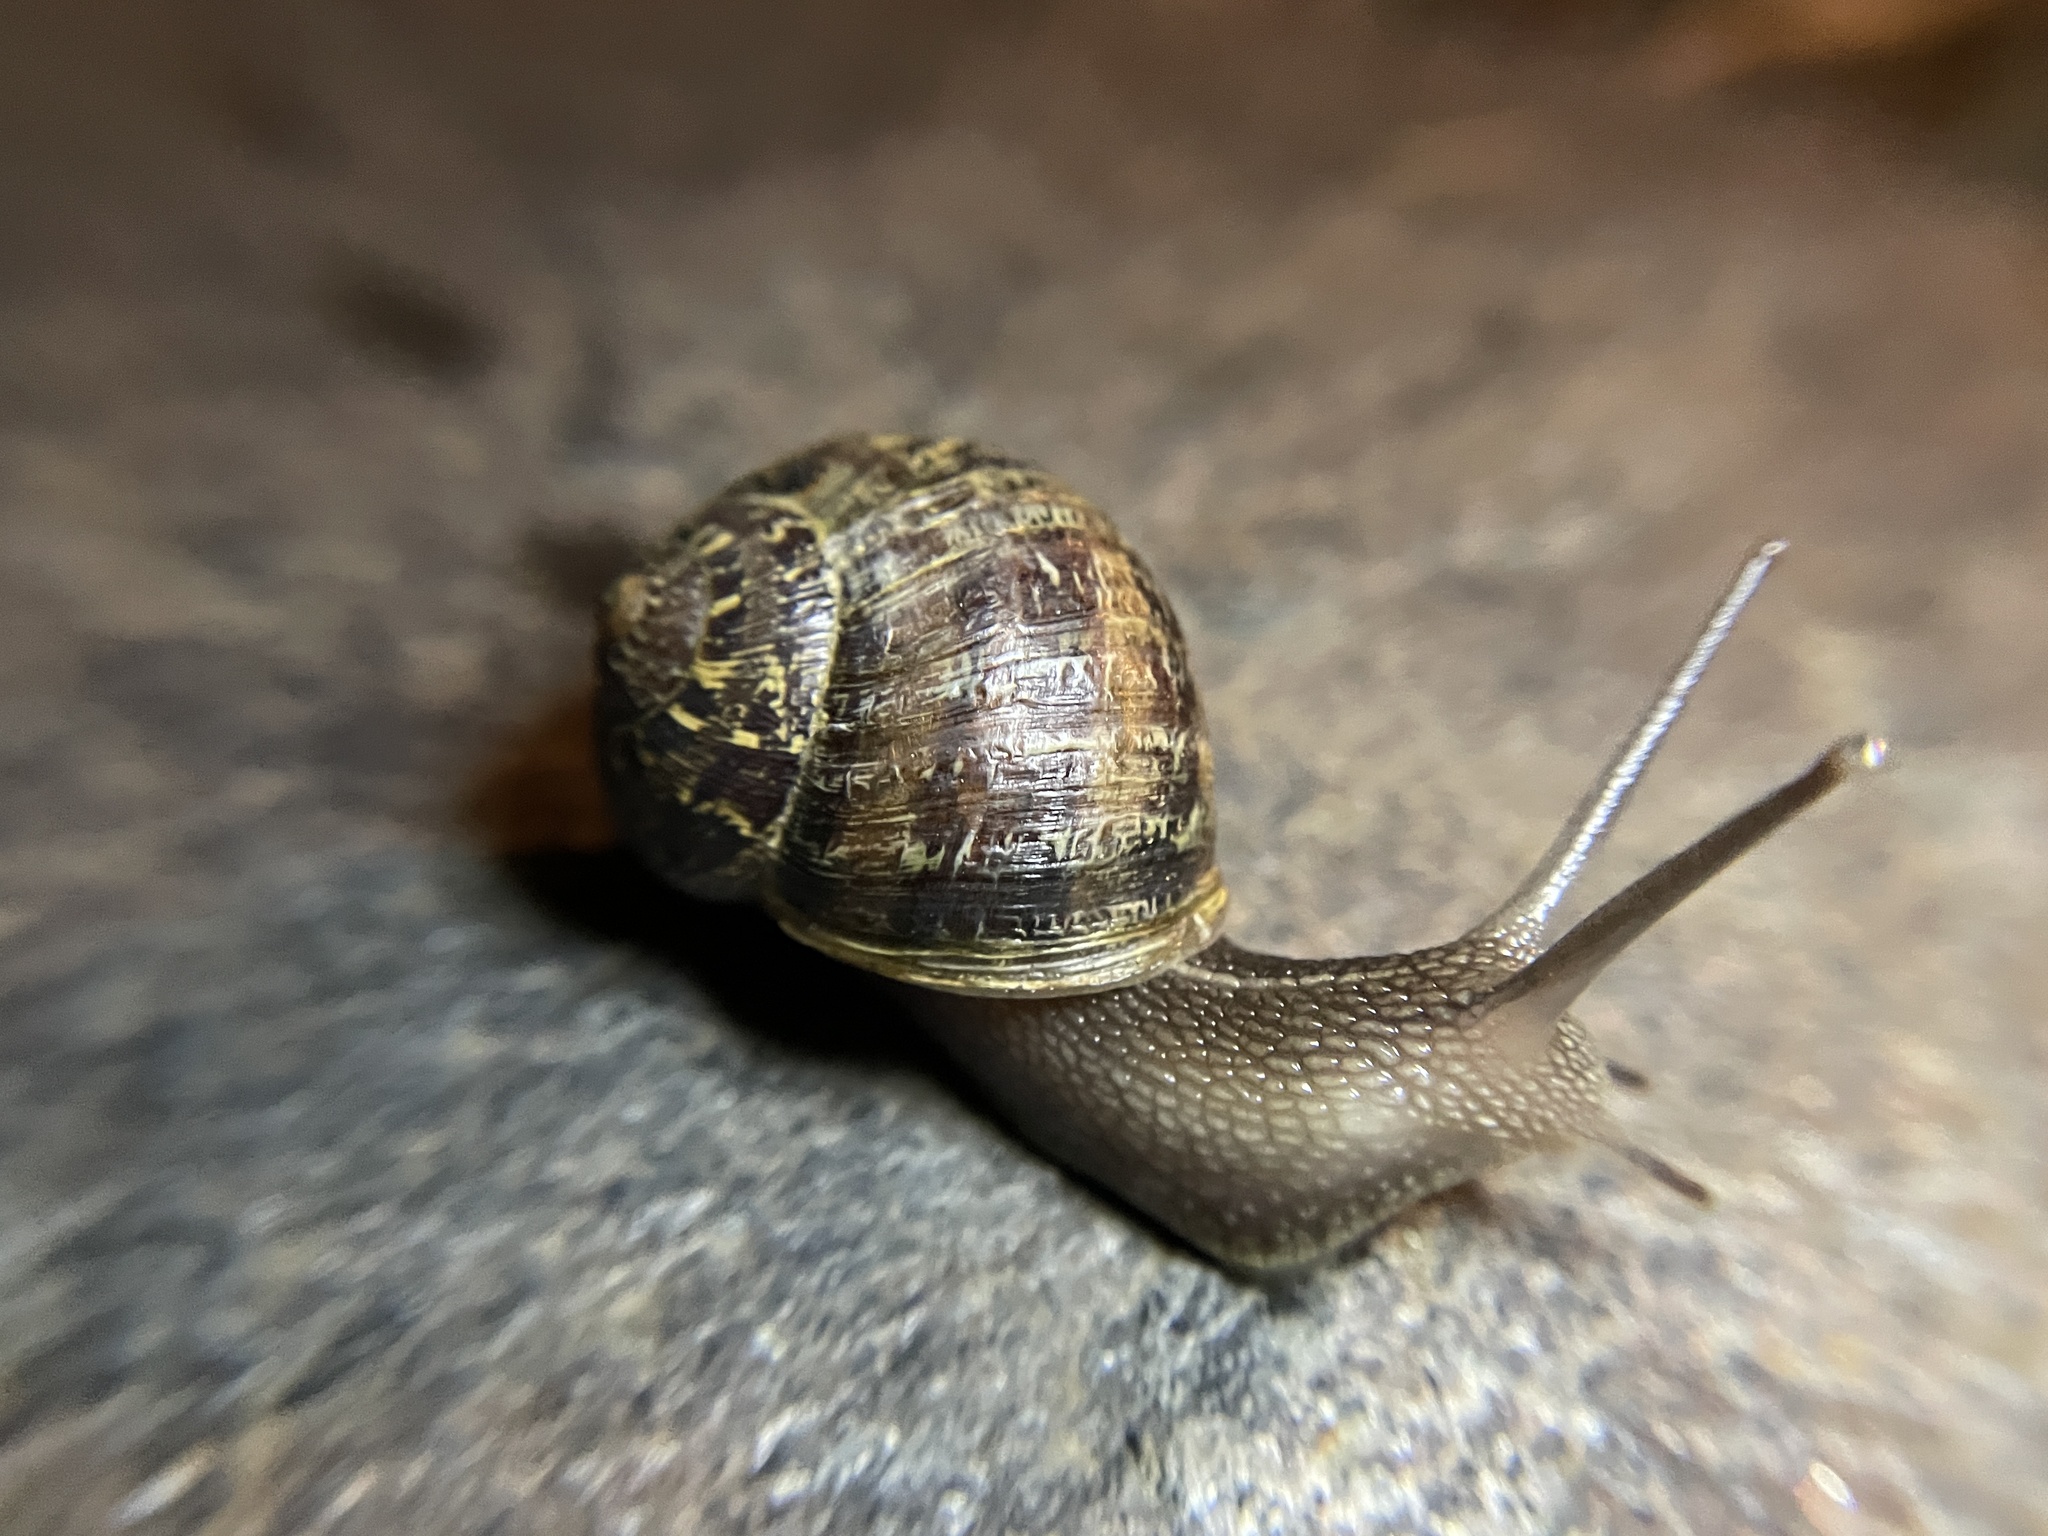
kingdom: Animalia
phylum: Mollusca
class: Gastropoda
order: Stylommatophora
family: Helicidae
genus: Cornu
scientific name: Cornu aspersum
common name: Brown garden snail
